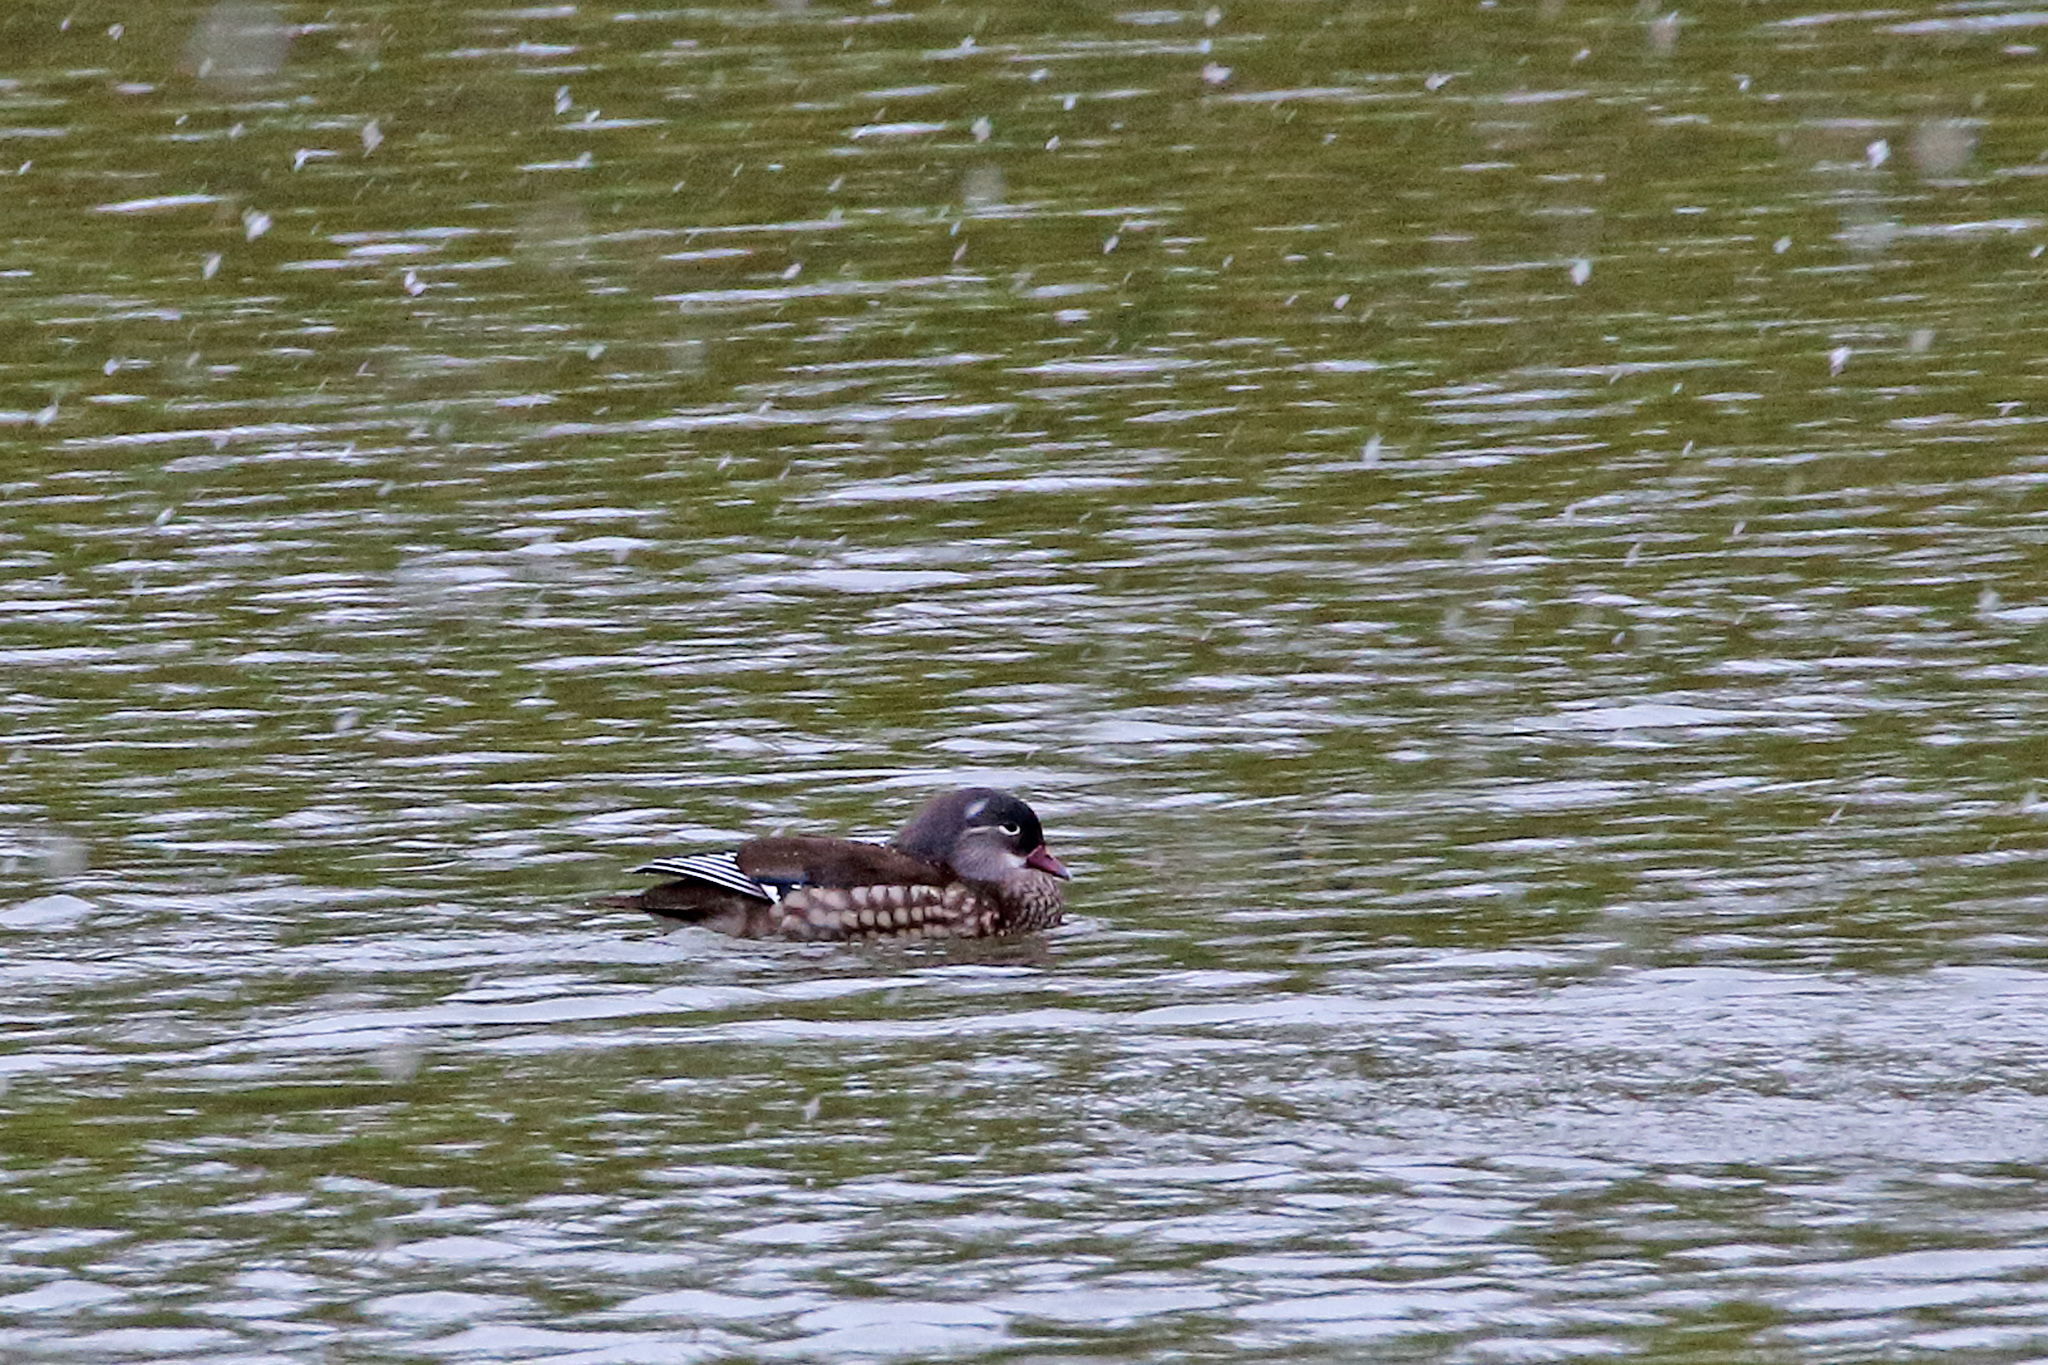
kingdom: Animalia
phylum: Chordata
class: Aves
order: Anseriformes
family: Anatidae
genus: Aix
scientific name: Aix galericulata
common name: Mandarin duck
